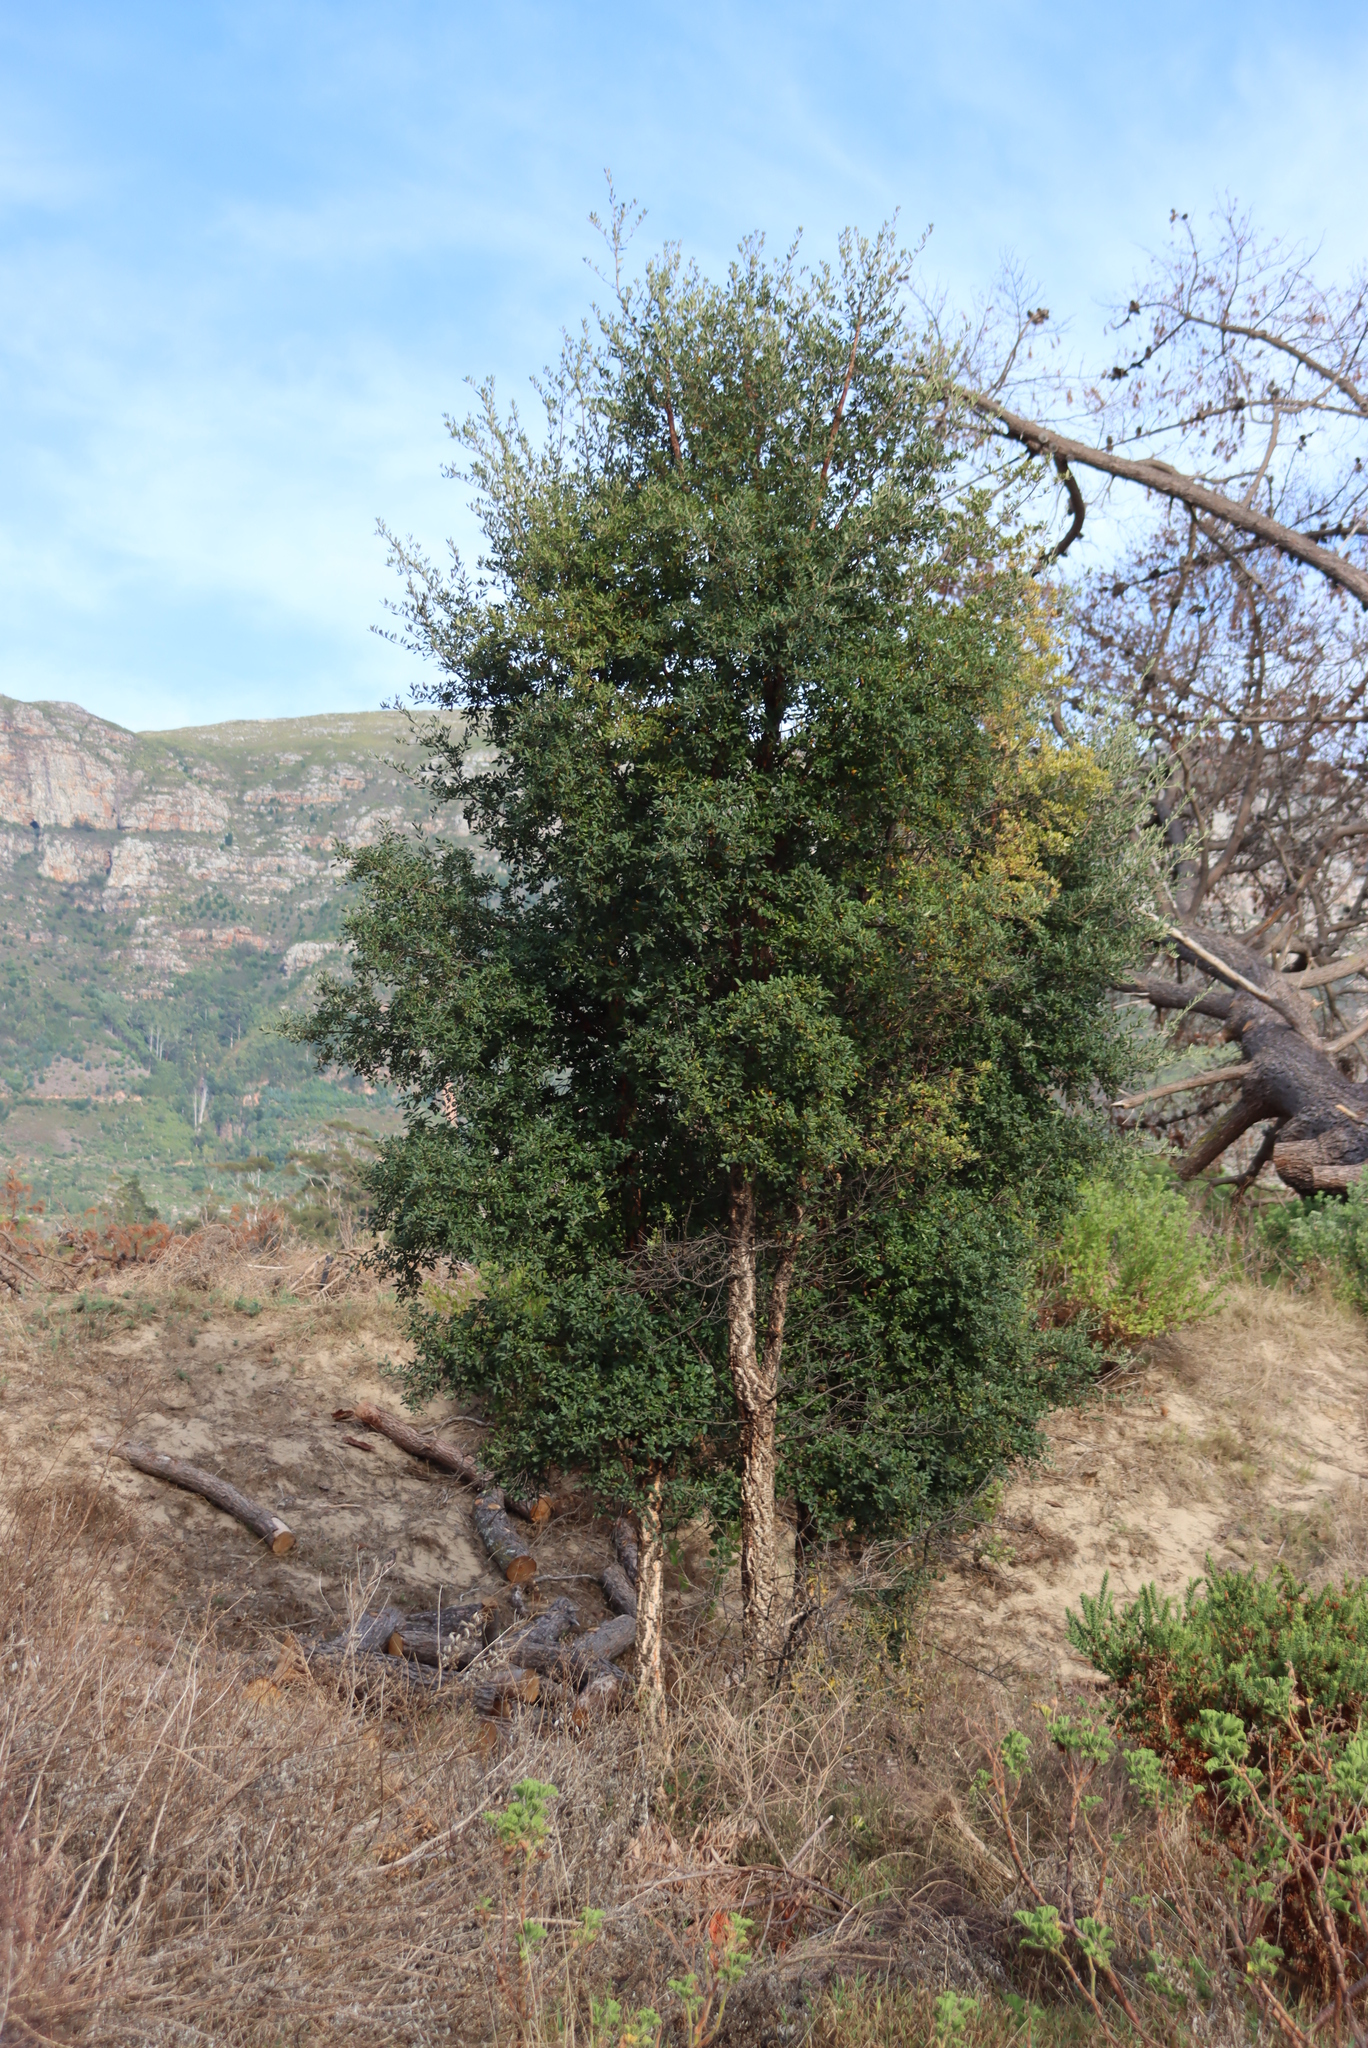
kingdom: Plantae
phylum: Tracheophyta
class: Magnoliopsida
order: Fagales
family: Fagaceae
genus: Quercus
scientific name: Quercus suber
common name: Cork oak
